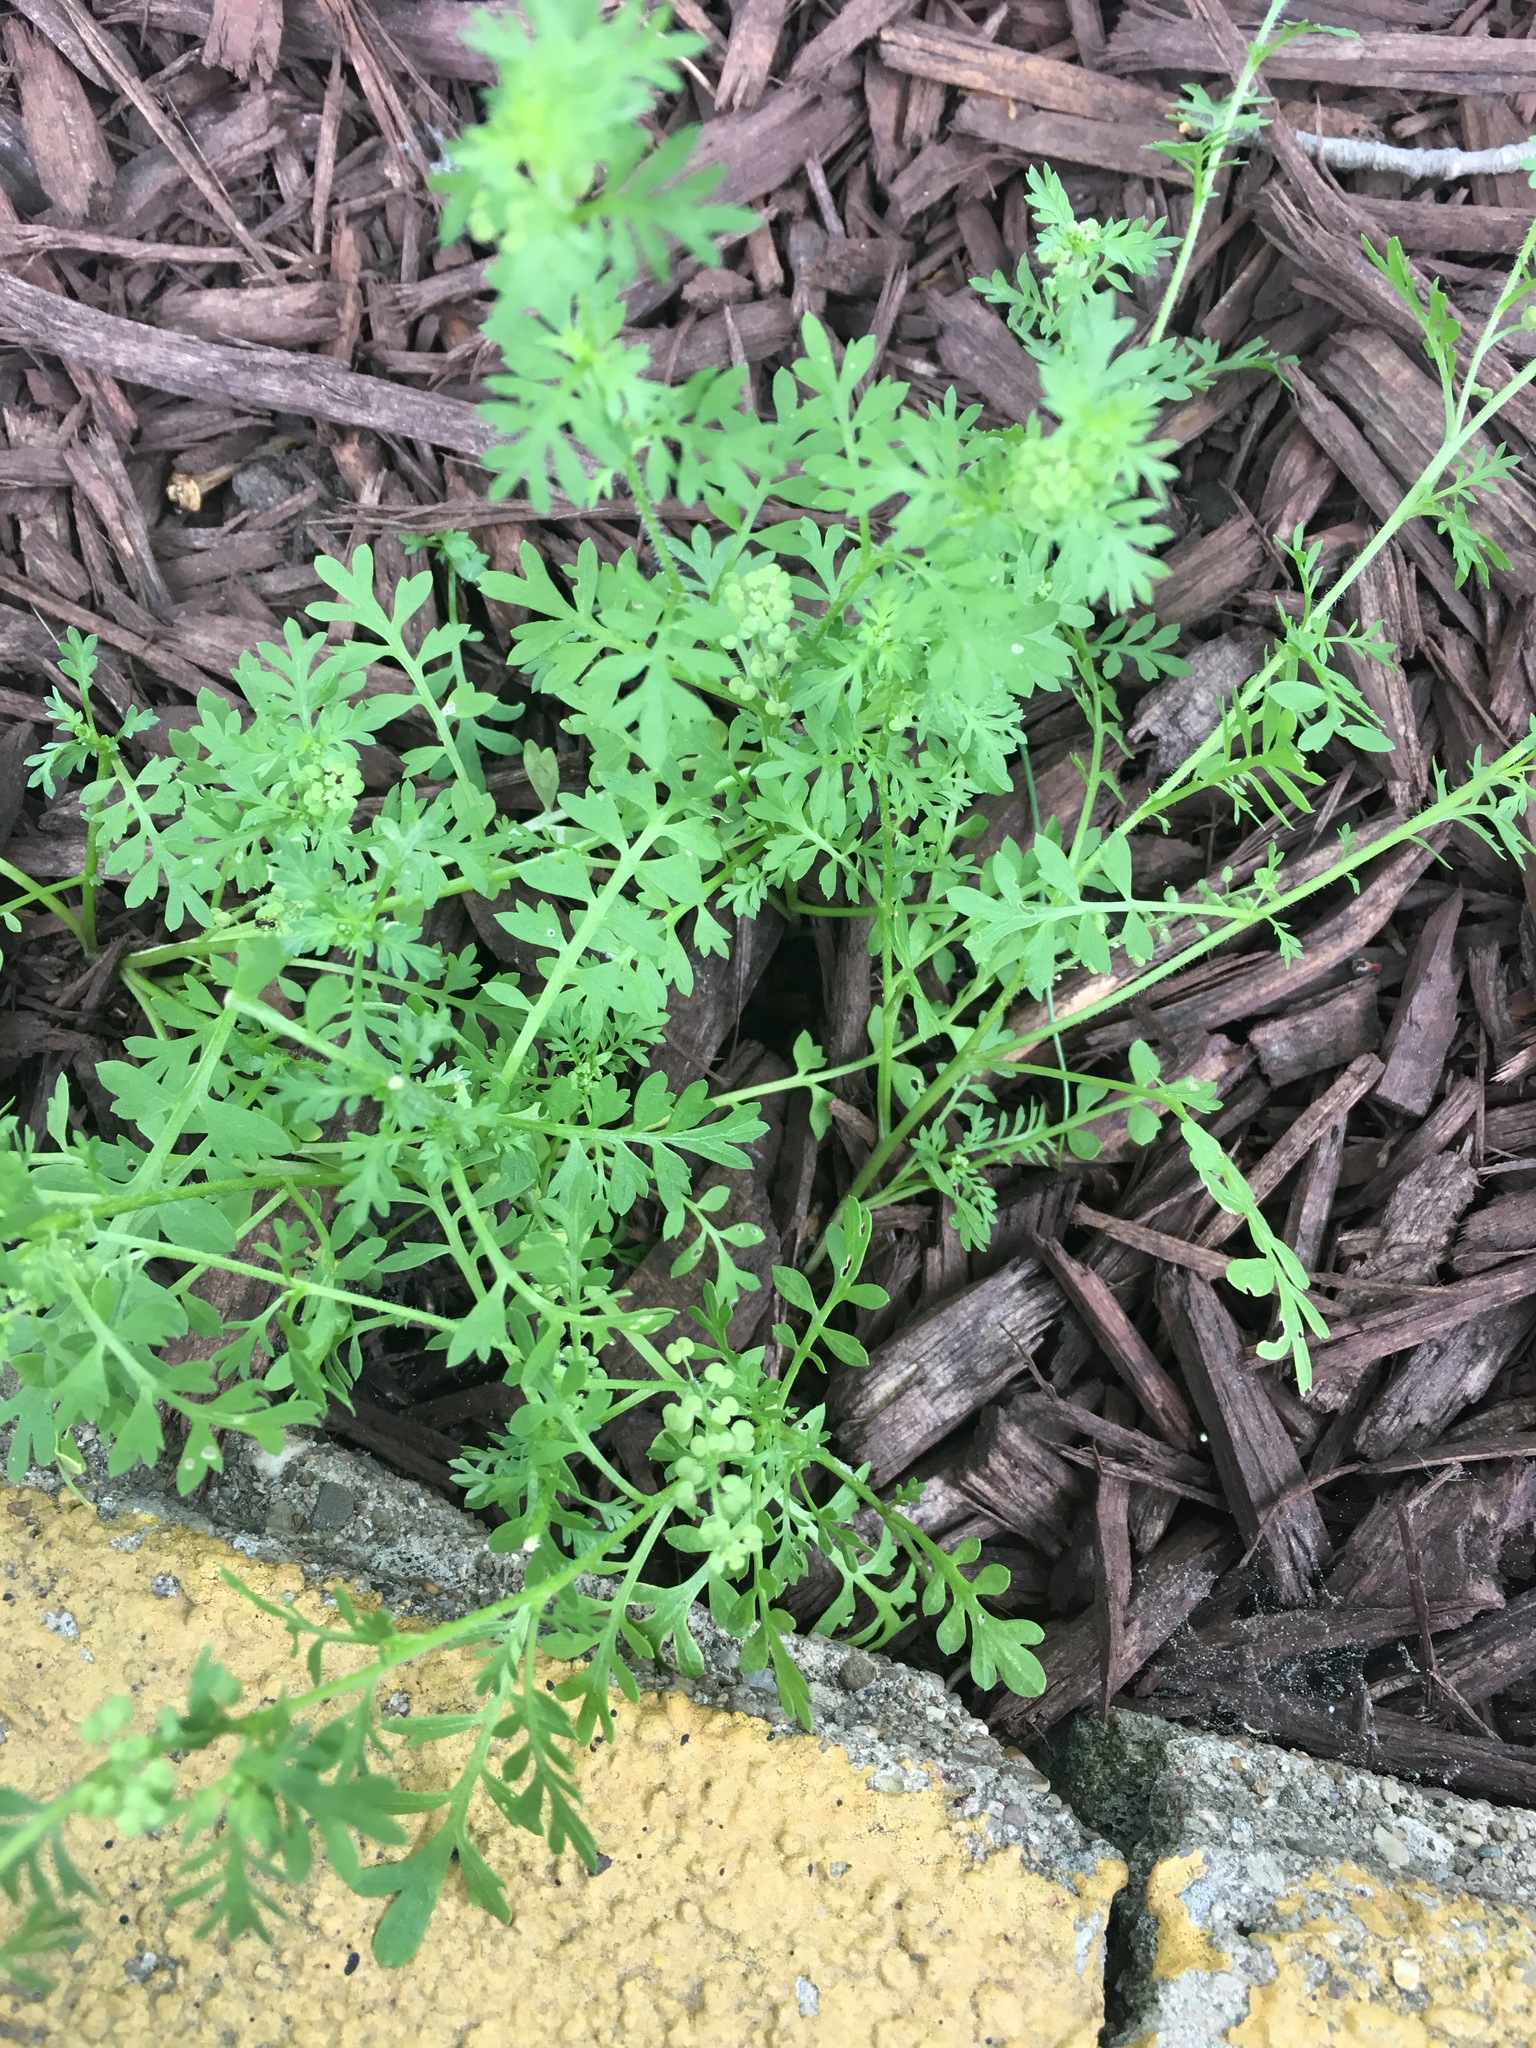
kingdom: Plantae
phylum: Tracheophyta
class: Magnoliopsida
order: Brassicales
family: Brassicaceae
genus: Lepidium
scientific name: Lepidium didymum
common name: Lesser swinecress
